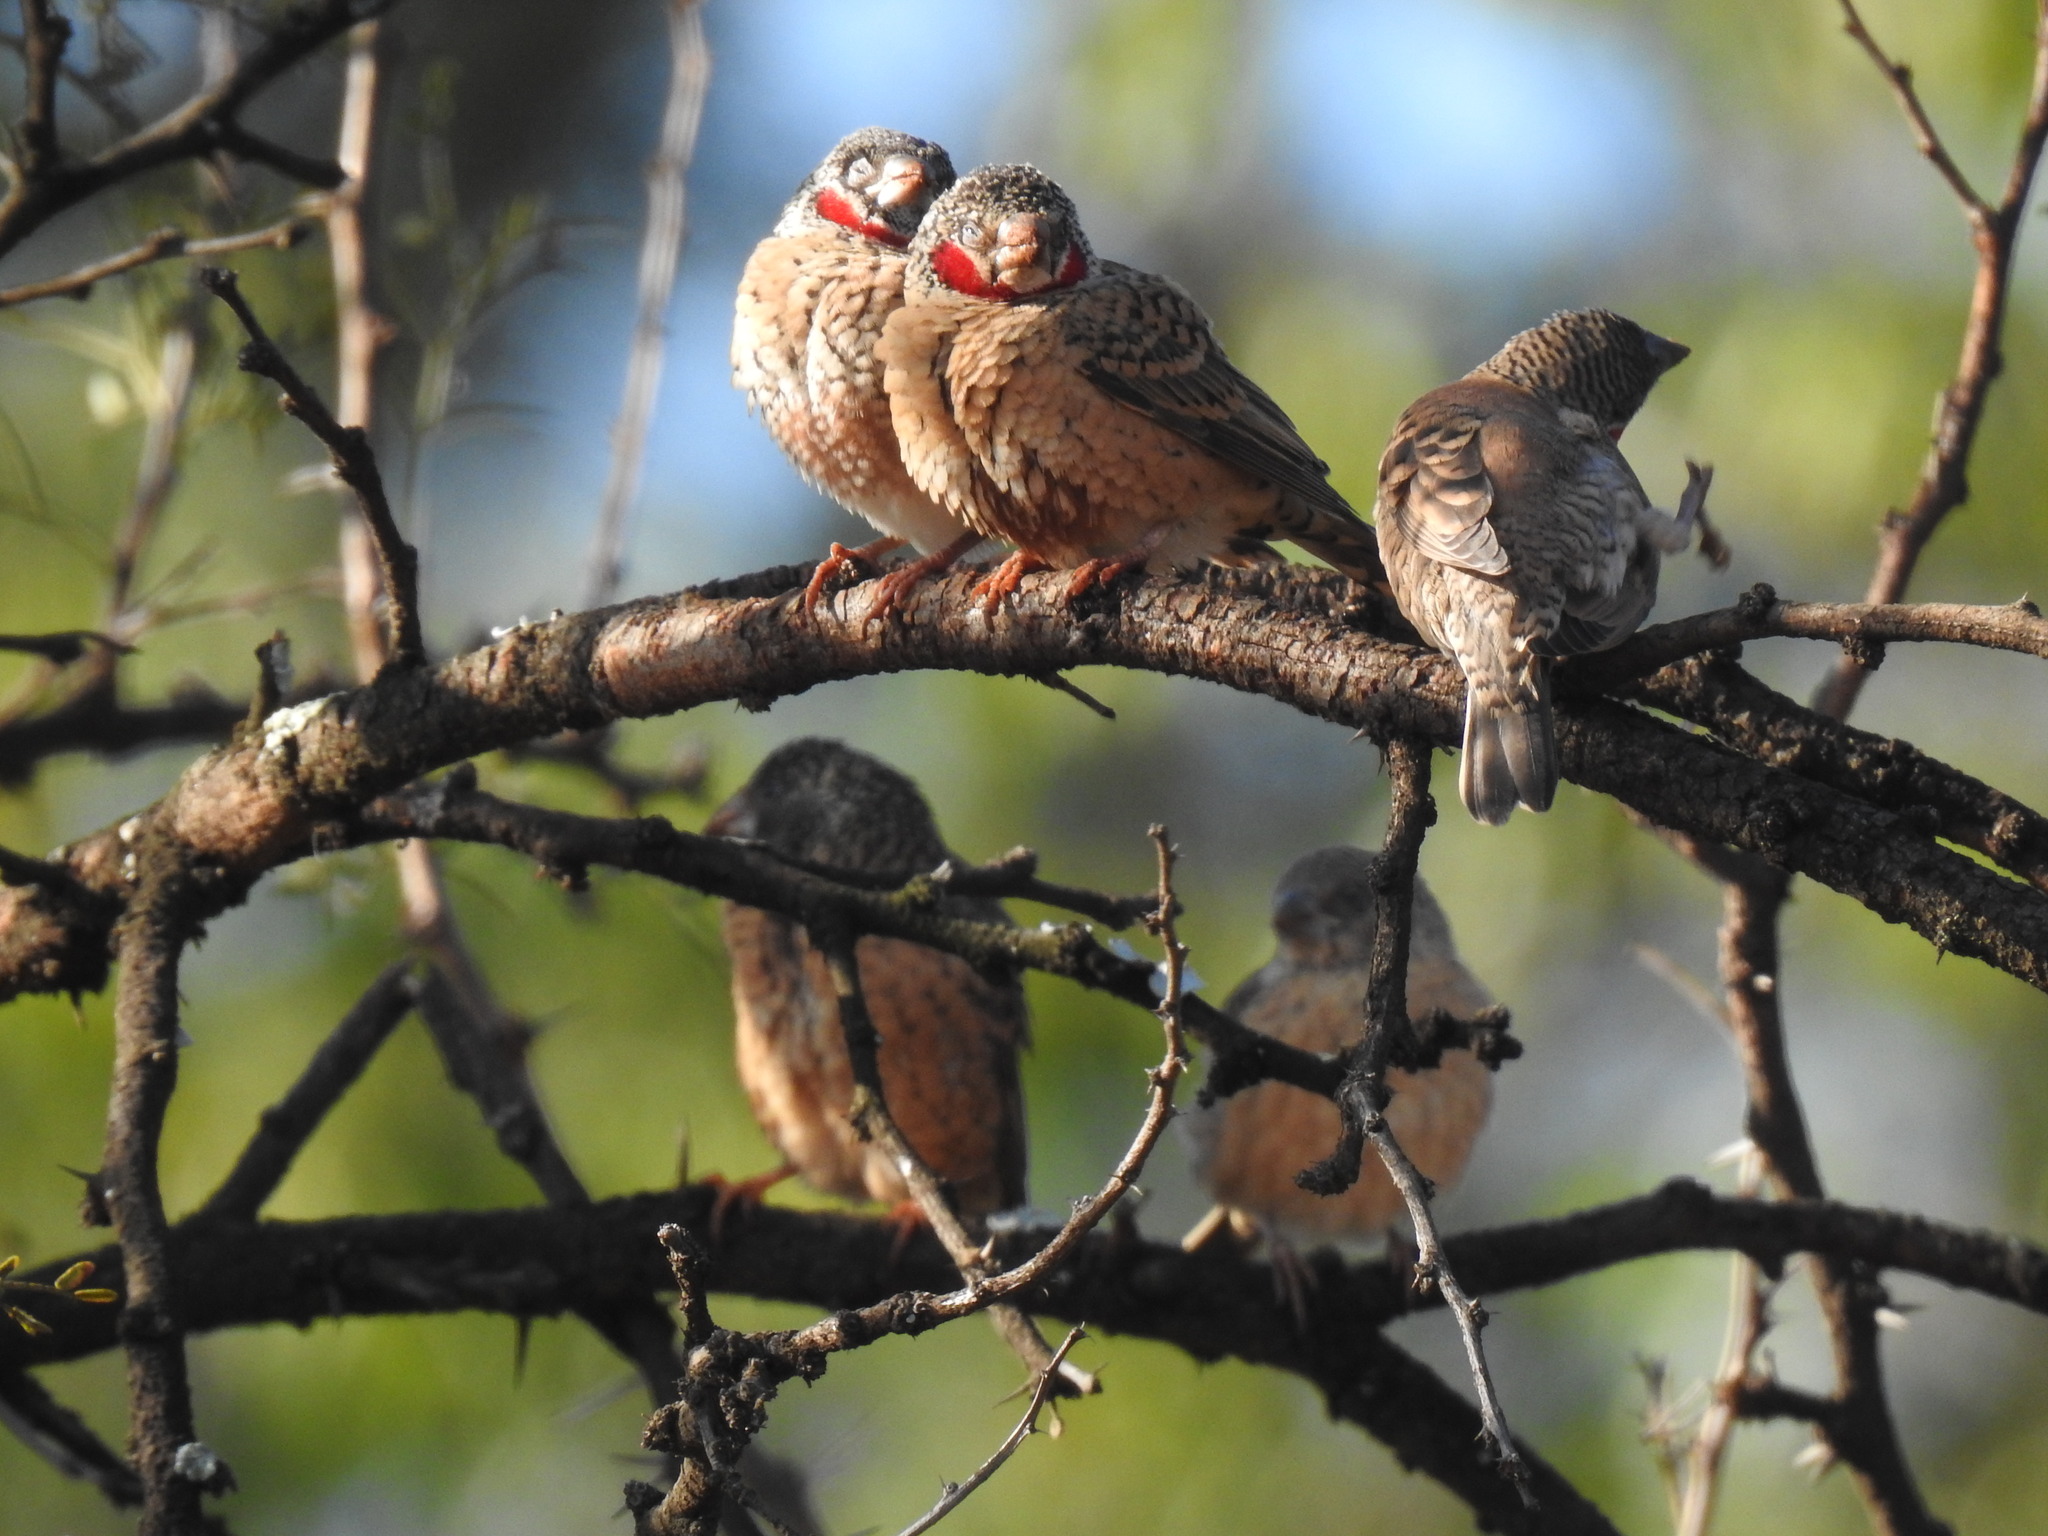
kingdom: Animalia
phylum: Chordata
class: Aves
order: Passeriformes
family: Estrildidae
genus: Amadina
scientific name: Amadina fasciata
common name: Cut-throat finch
